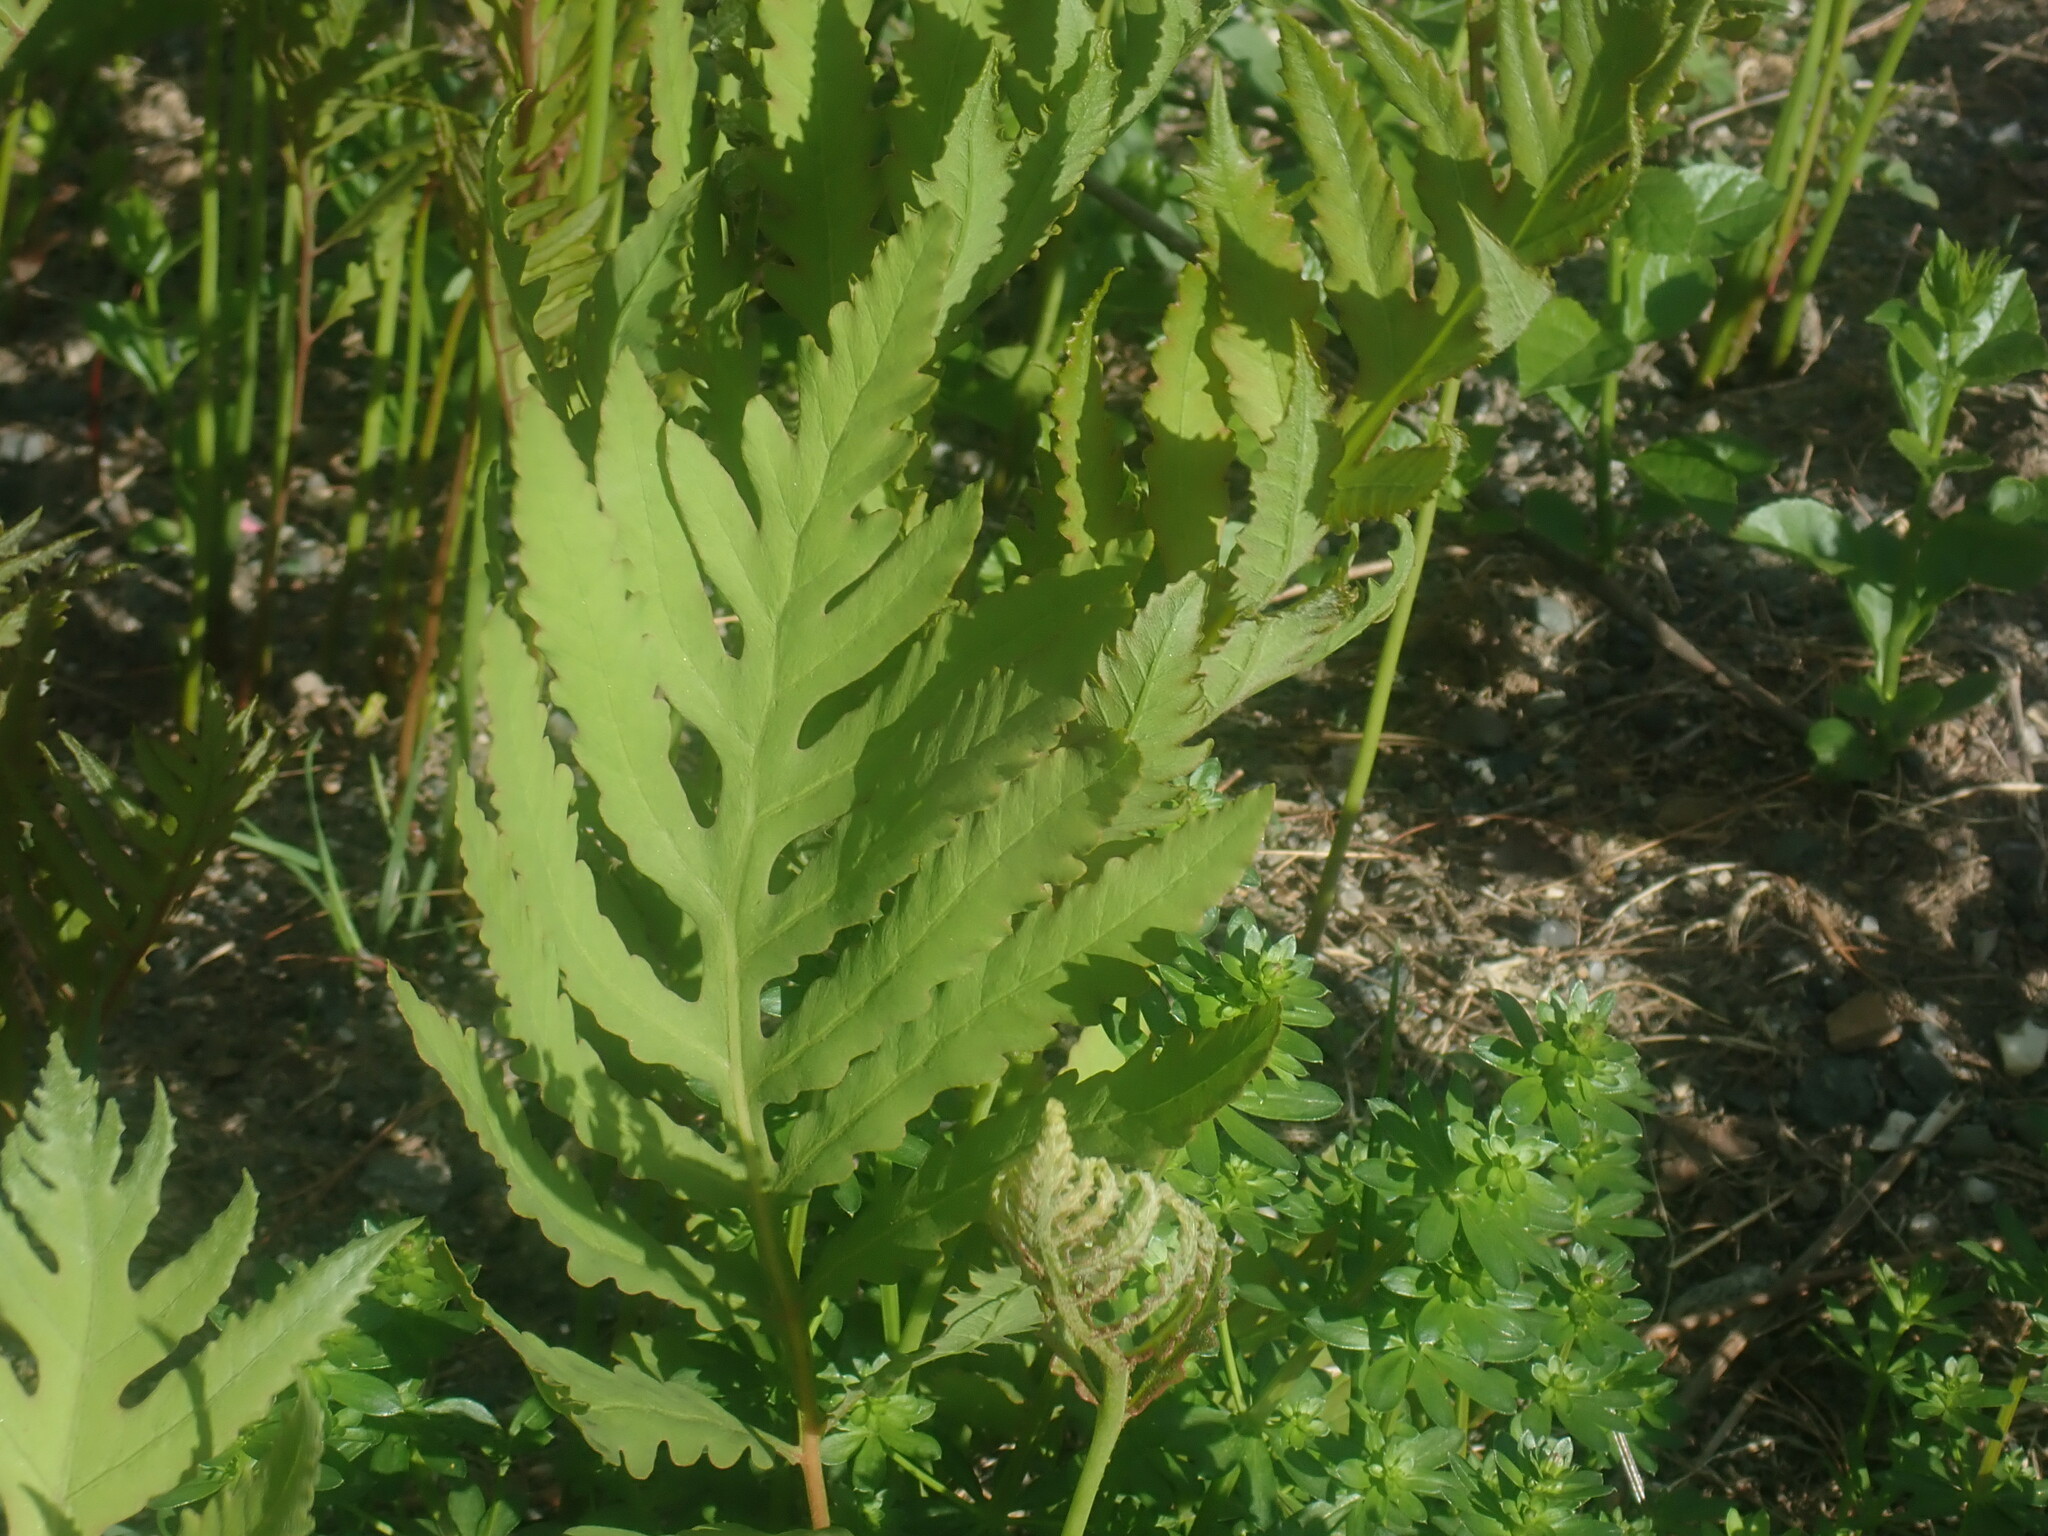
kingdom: Plantae
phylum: Tracheophyta
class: Polypodiopsida
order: Polypodiales
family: Onocleaceae
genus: Onoclea
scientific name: Onoclea sensibilis
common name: Sensitive fern
